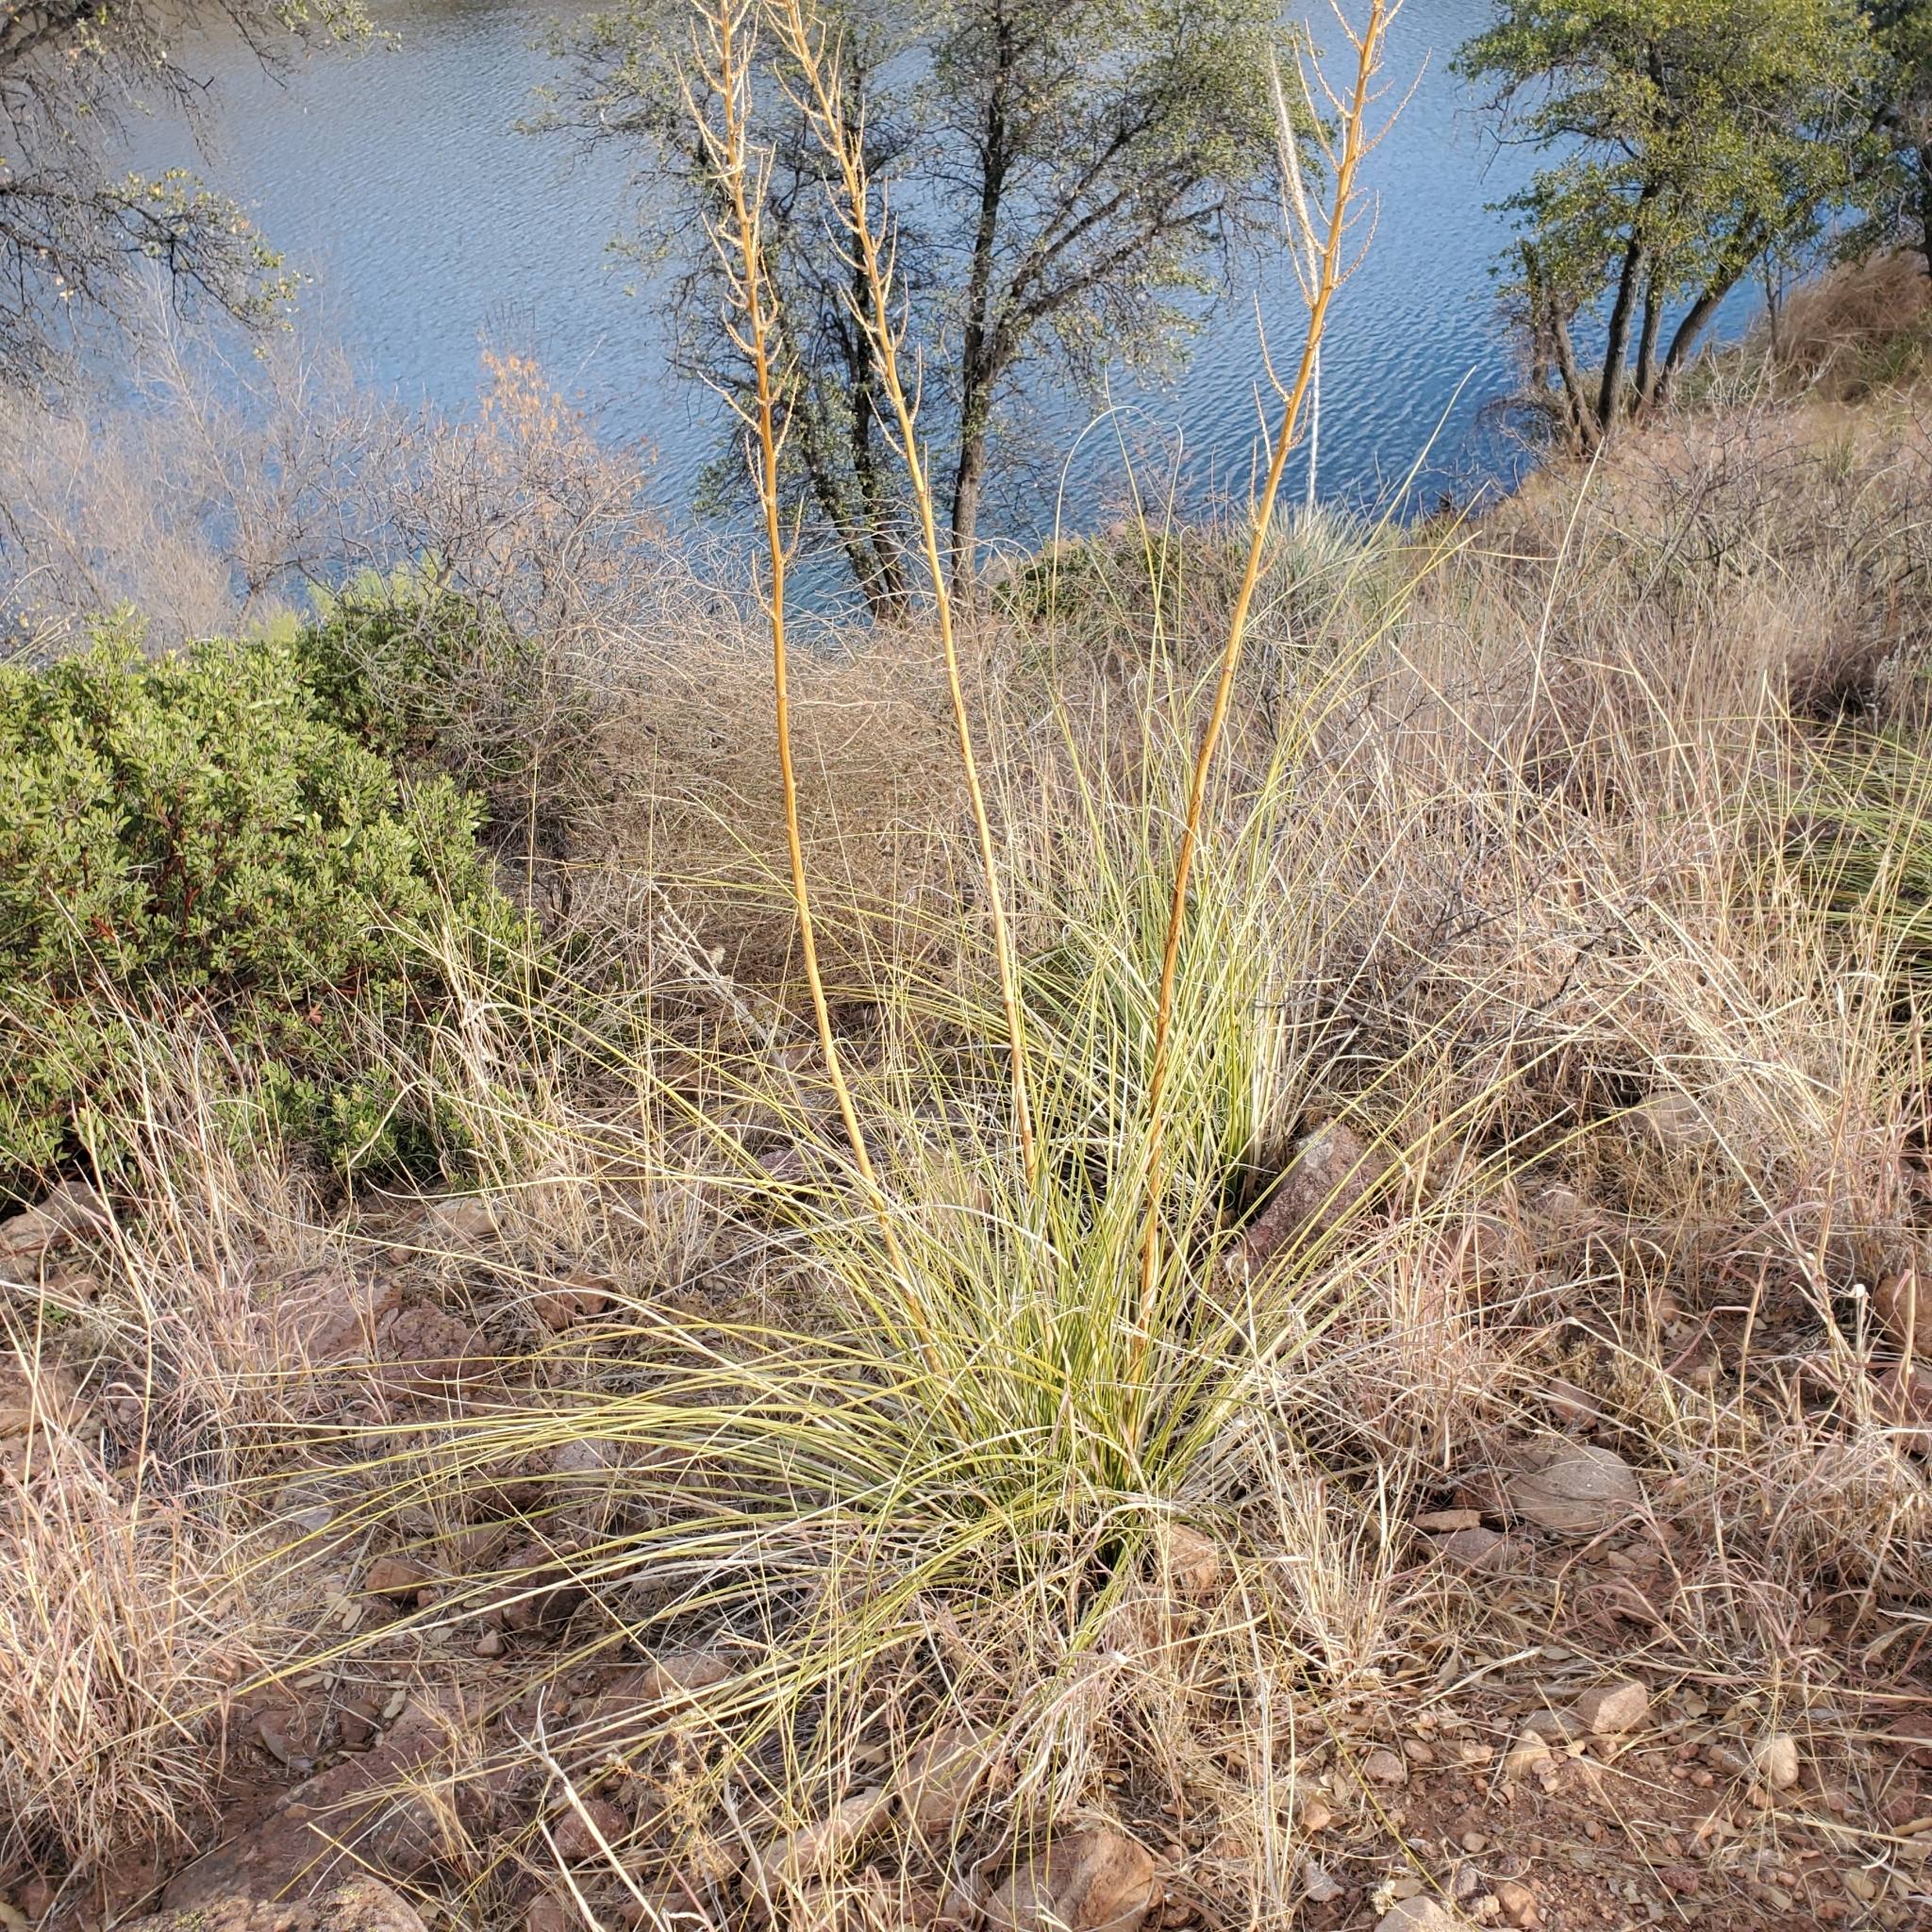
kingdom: Plantae
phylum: Tracheophyta
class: Liliopsida
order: Asparagales
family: Asparagaceae
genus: Nolina
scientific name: Nolina microcarpa
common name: Bear-grass
